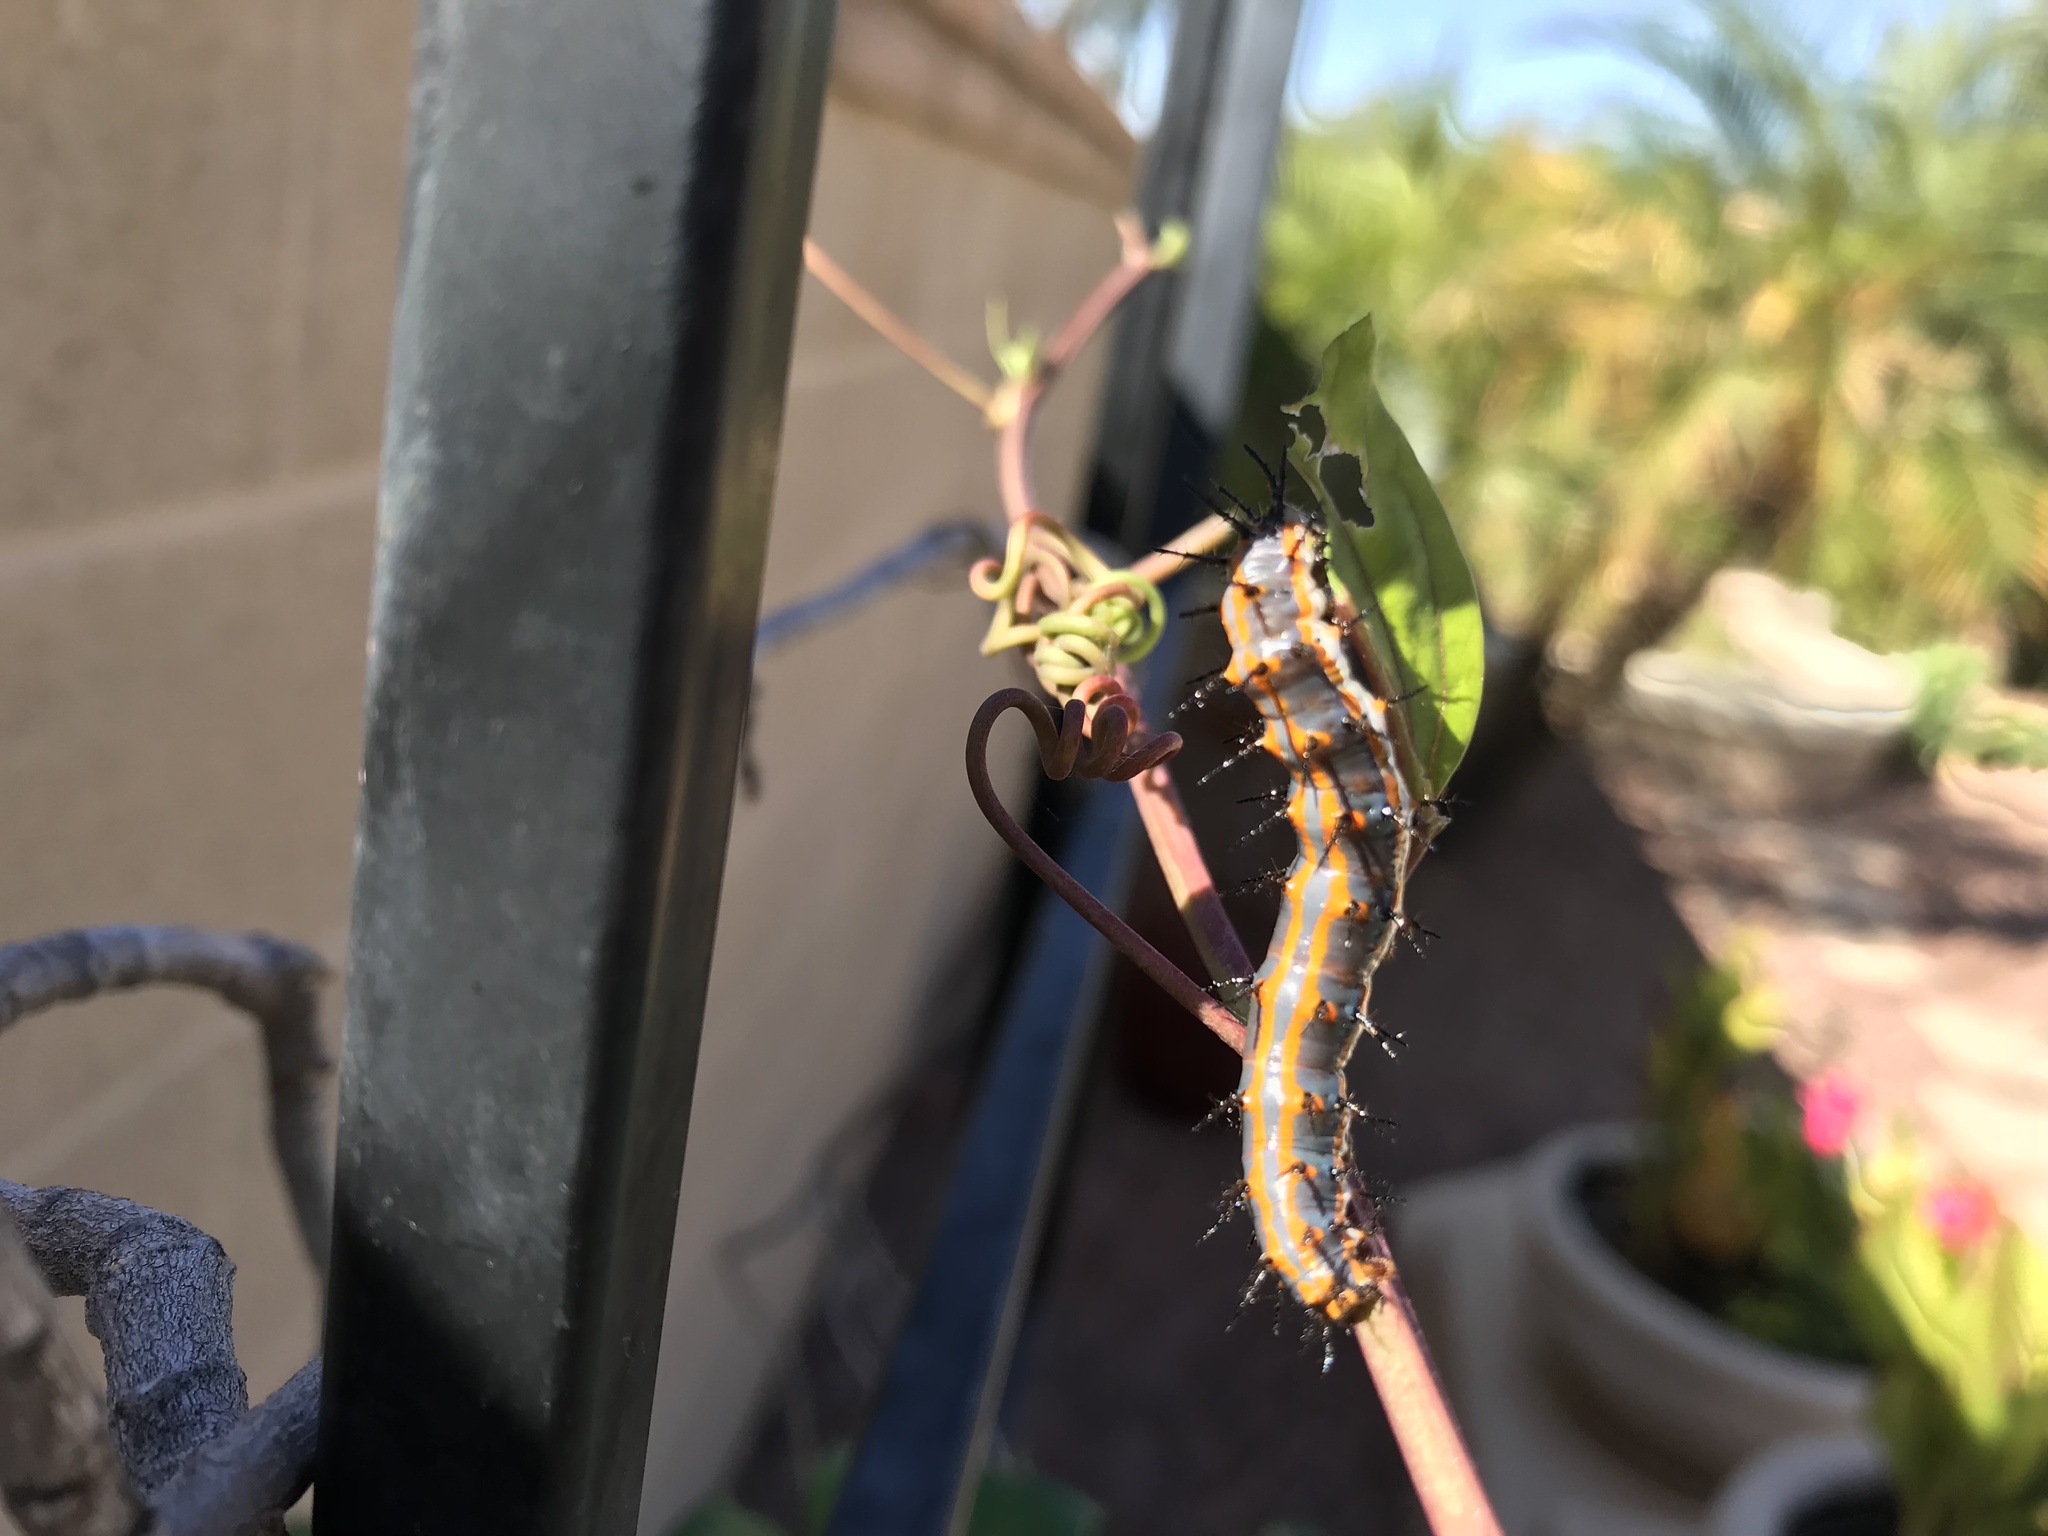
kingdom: Animalia
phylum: Arthropoda
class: Insecta
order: Lepidoptera
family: Nymphalidae
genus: Dione
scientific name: Dione vanillae
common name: Gulf fritillary
